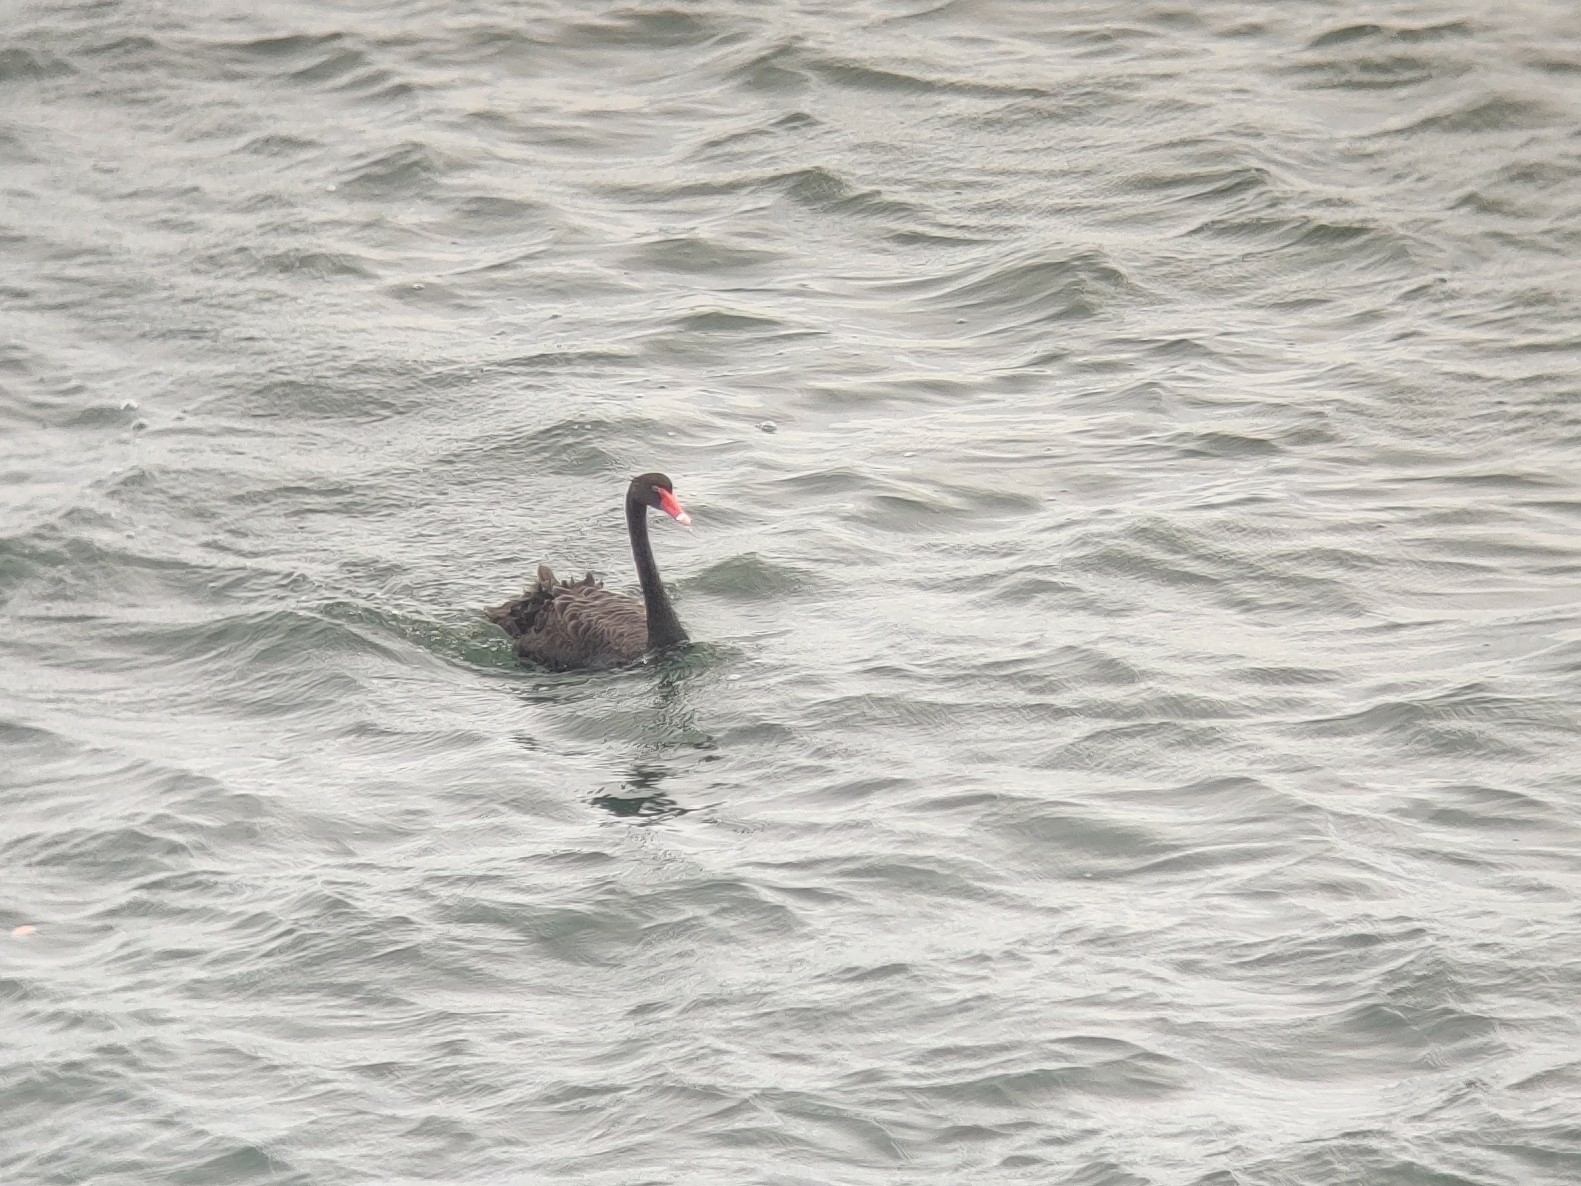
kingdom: Animalia
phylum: Chordata
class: Aves
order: Anseriformes
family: Anatidae
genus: Cygnus
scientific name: Cygnus atratus
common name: Black swan
